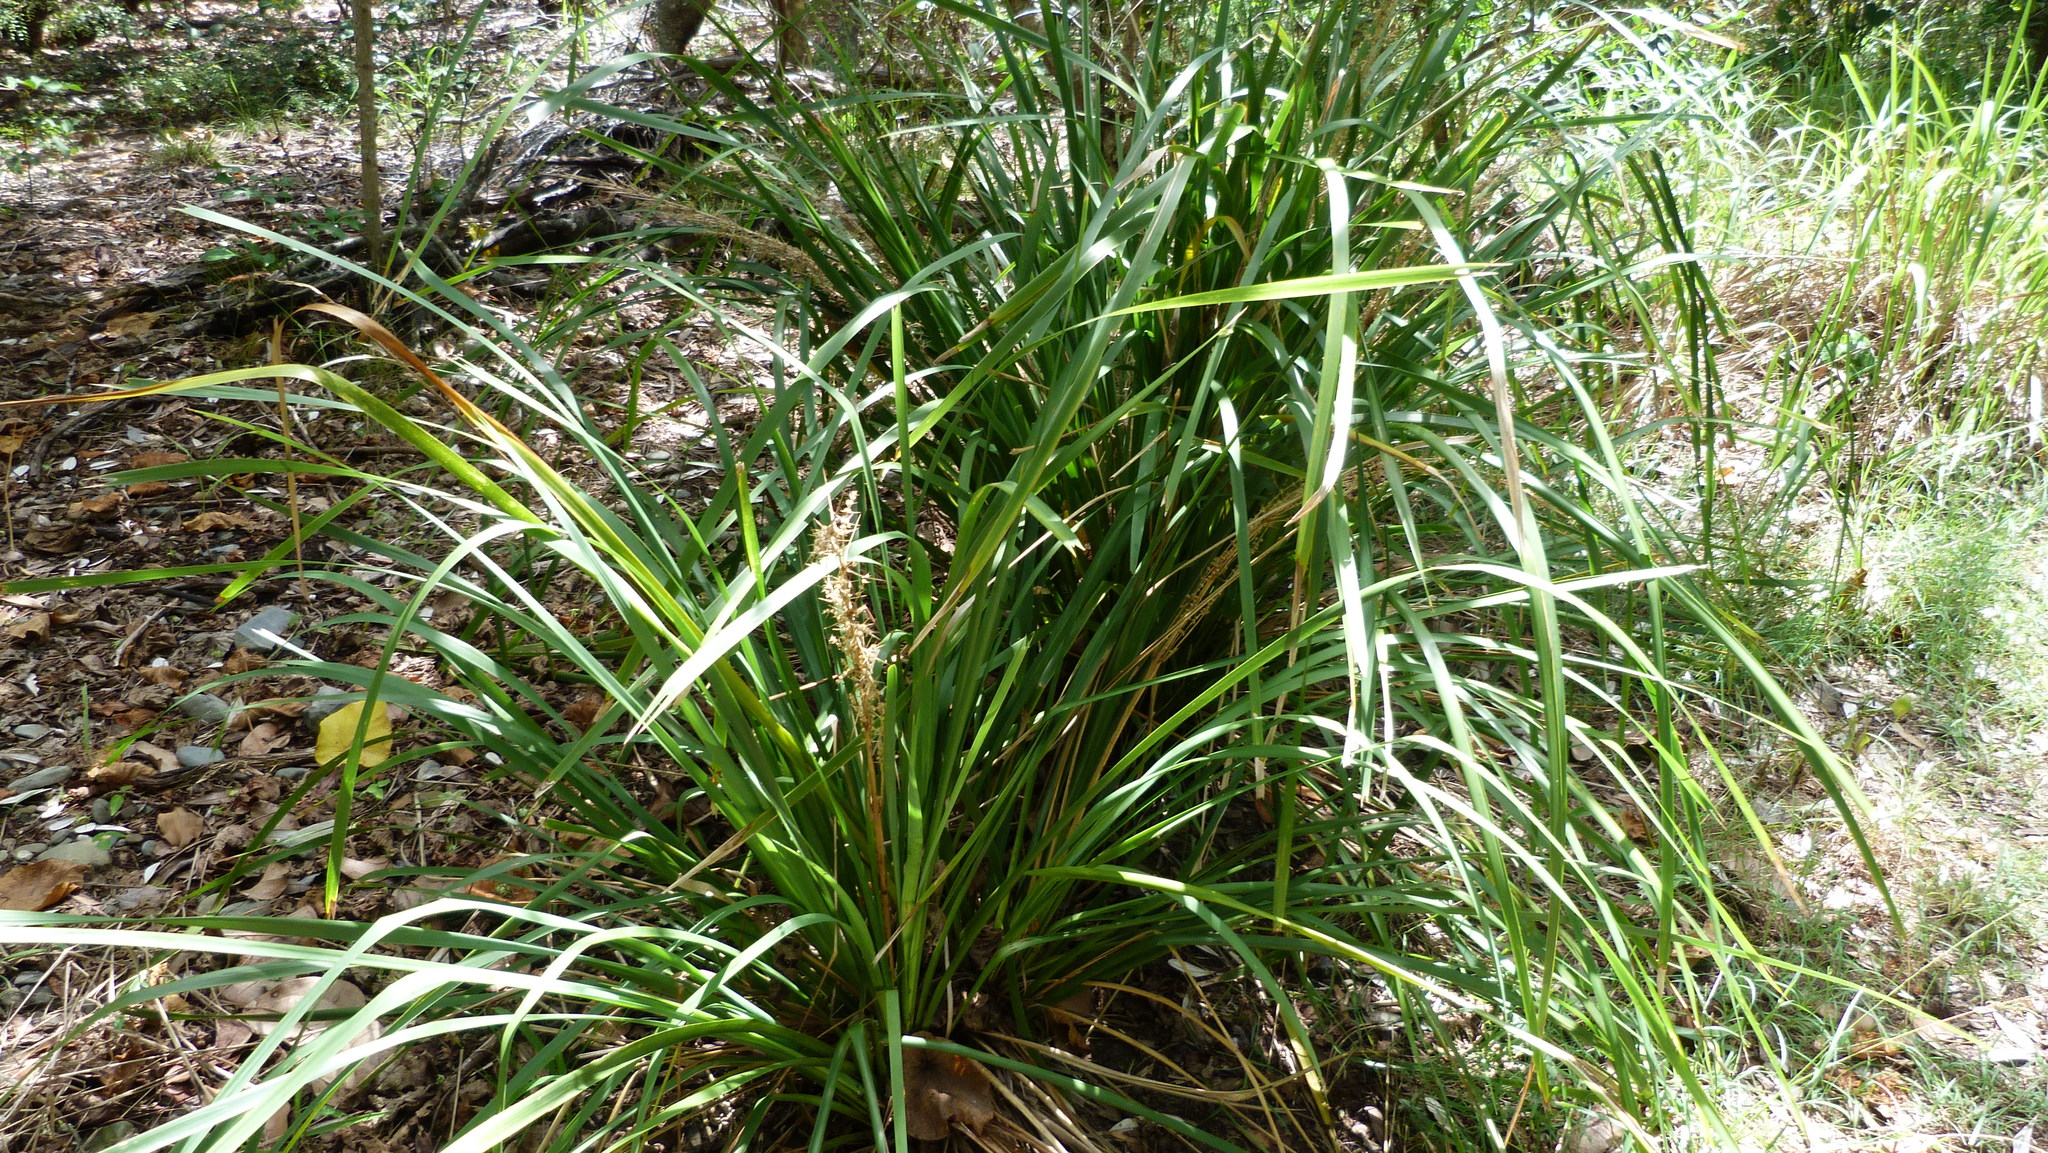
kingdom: Plantae
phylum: Tracheophyta
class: Liliopsida
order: Asparagales
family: Asparagaceae
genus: Lomandra
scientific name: Lomandra longifolia
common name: Longleaf mat-rush
